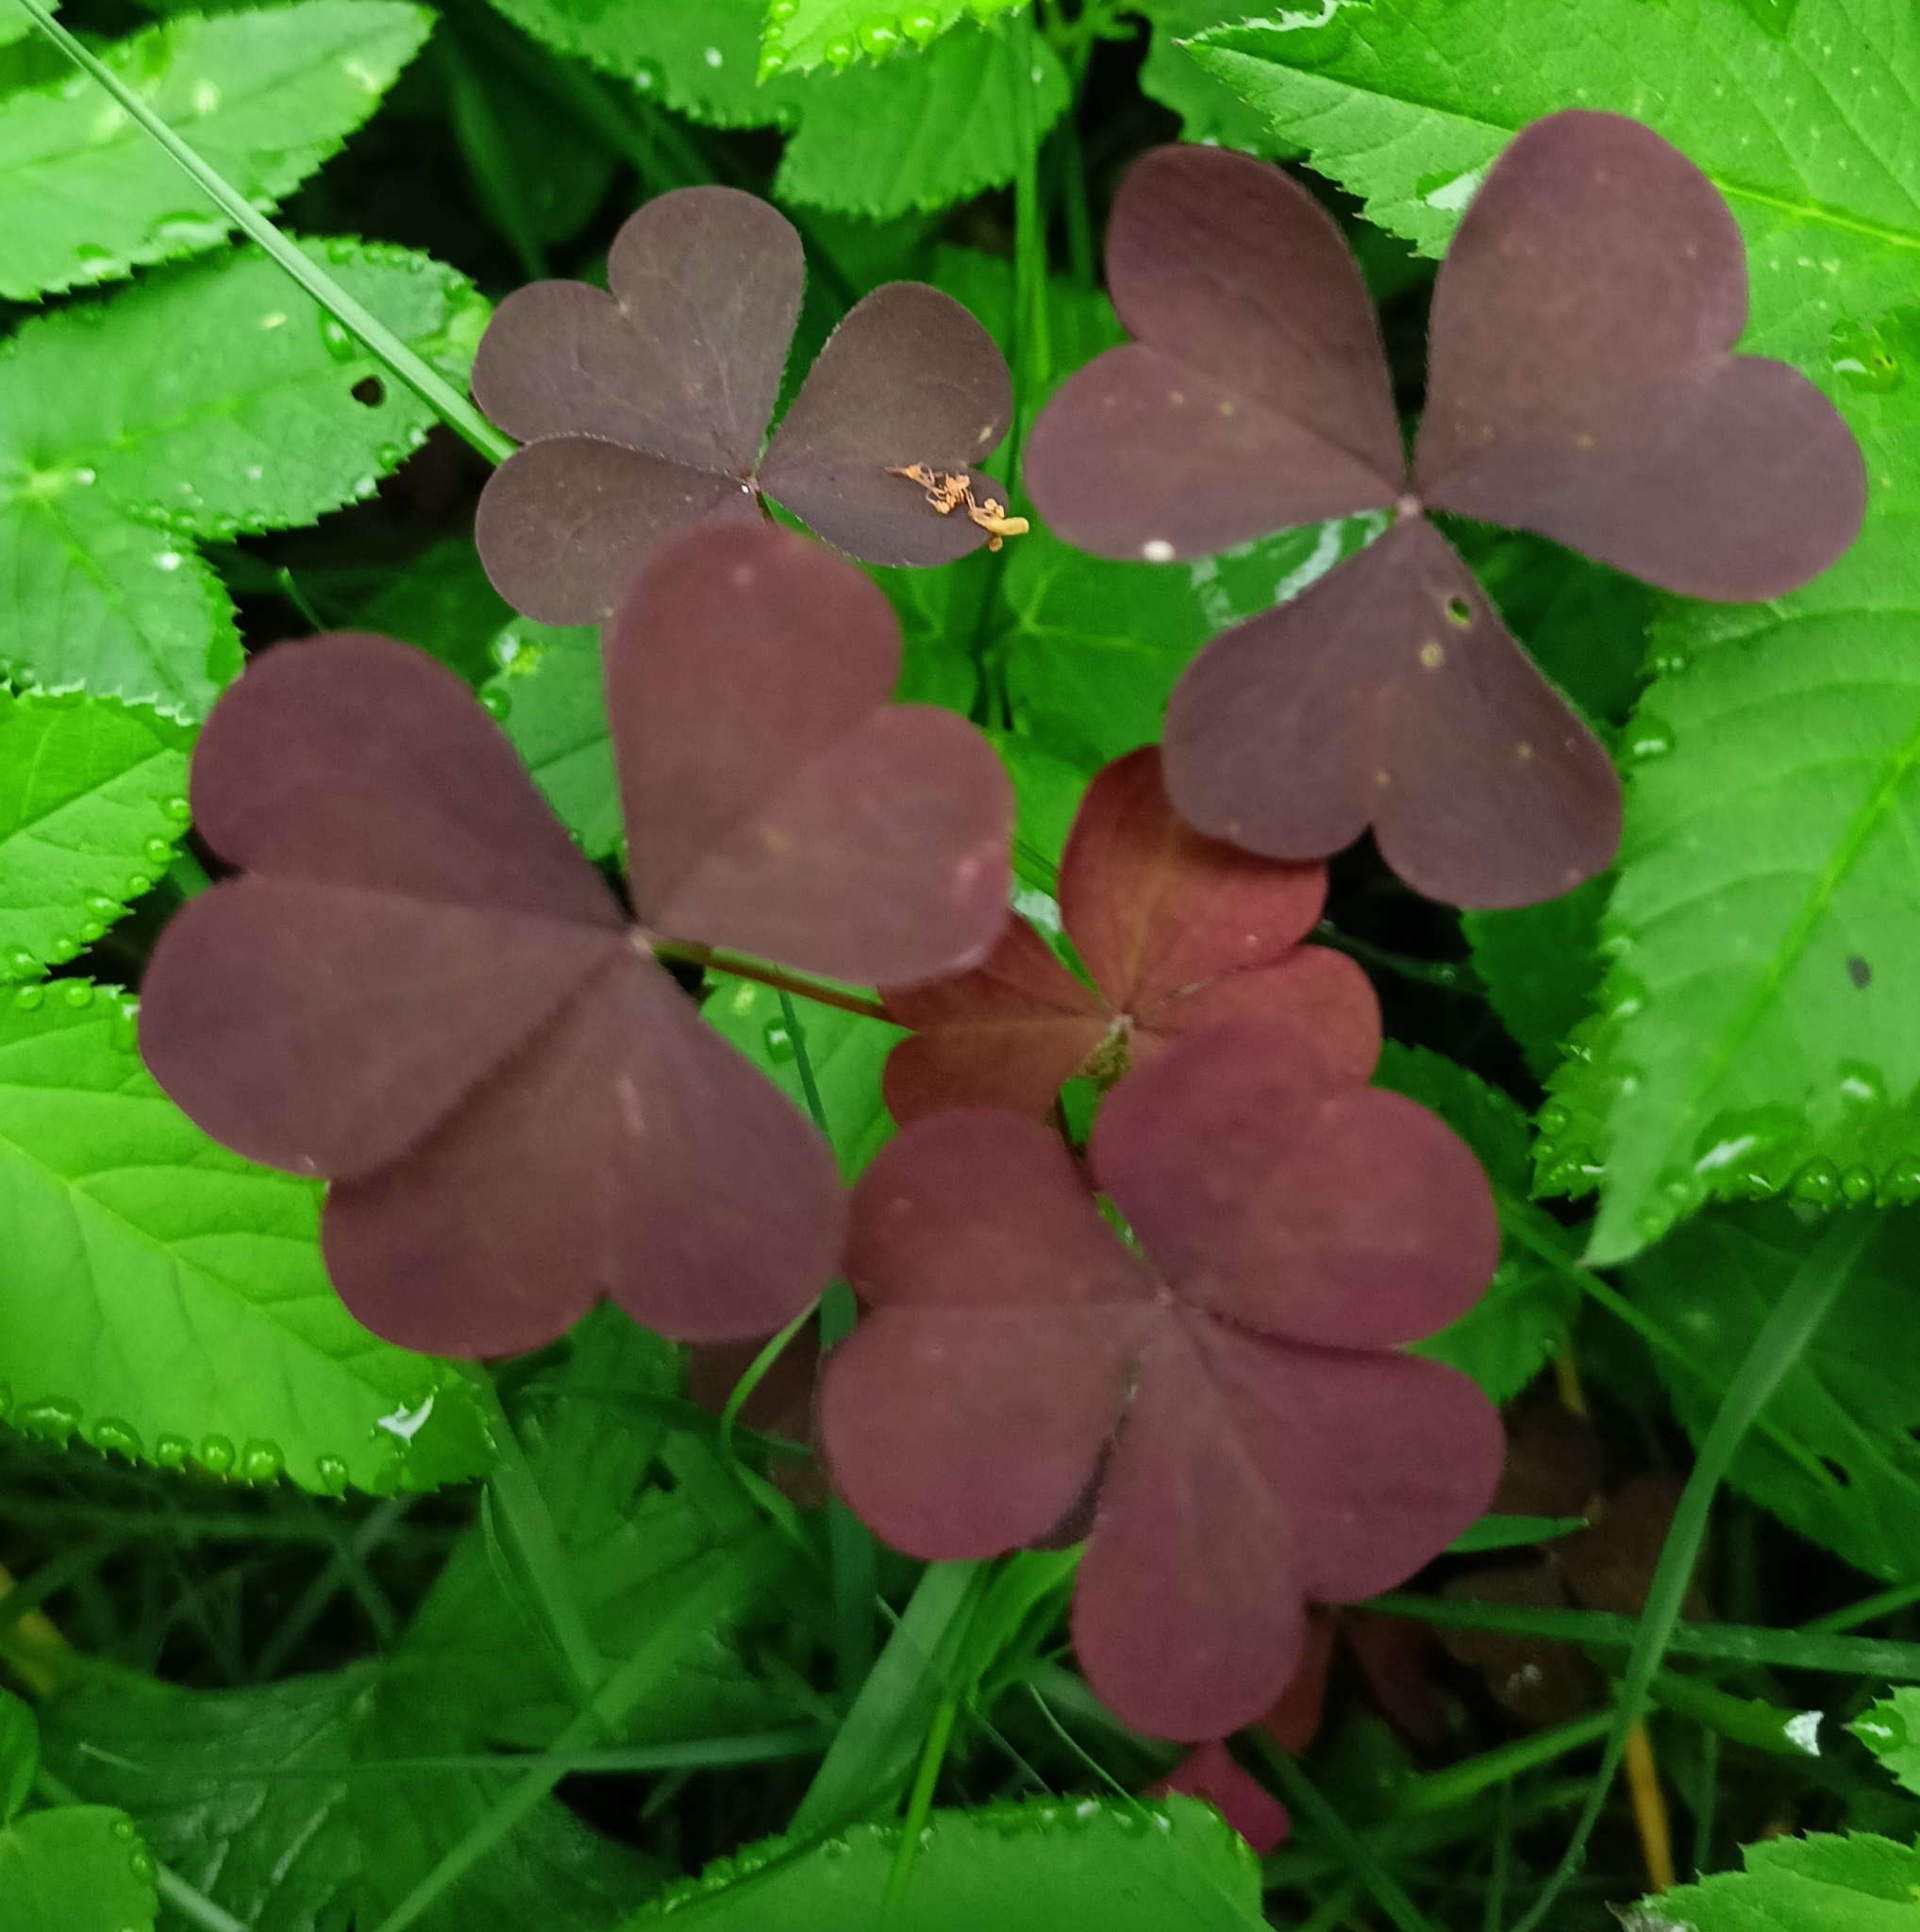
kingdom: Plantae
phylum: Tracheophyta
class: Magnoliopsida
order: Oxalidales
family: Oxalidaceae
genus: Oxalis
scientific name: Oxalis stricta
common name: Upright yellow-sorrel
